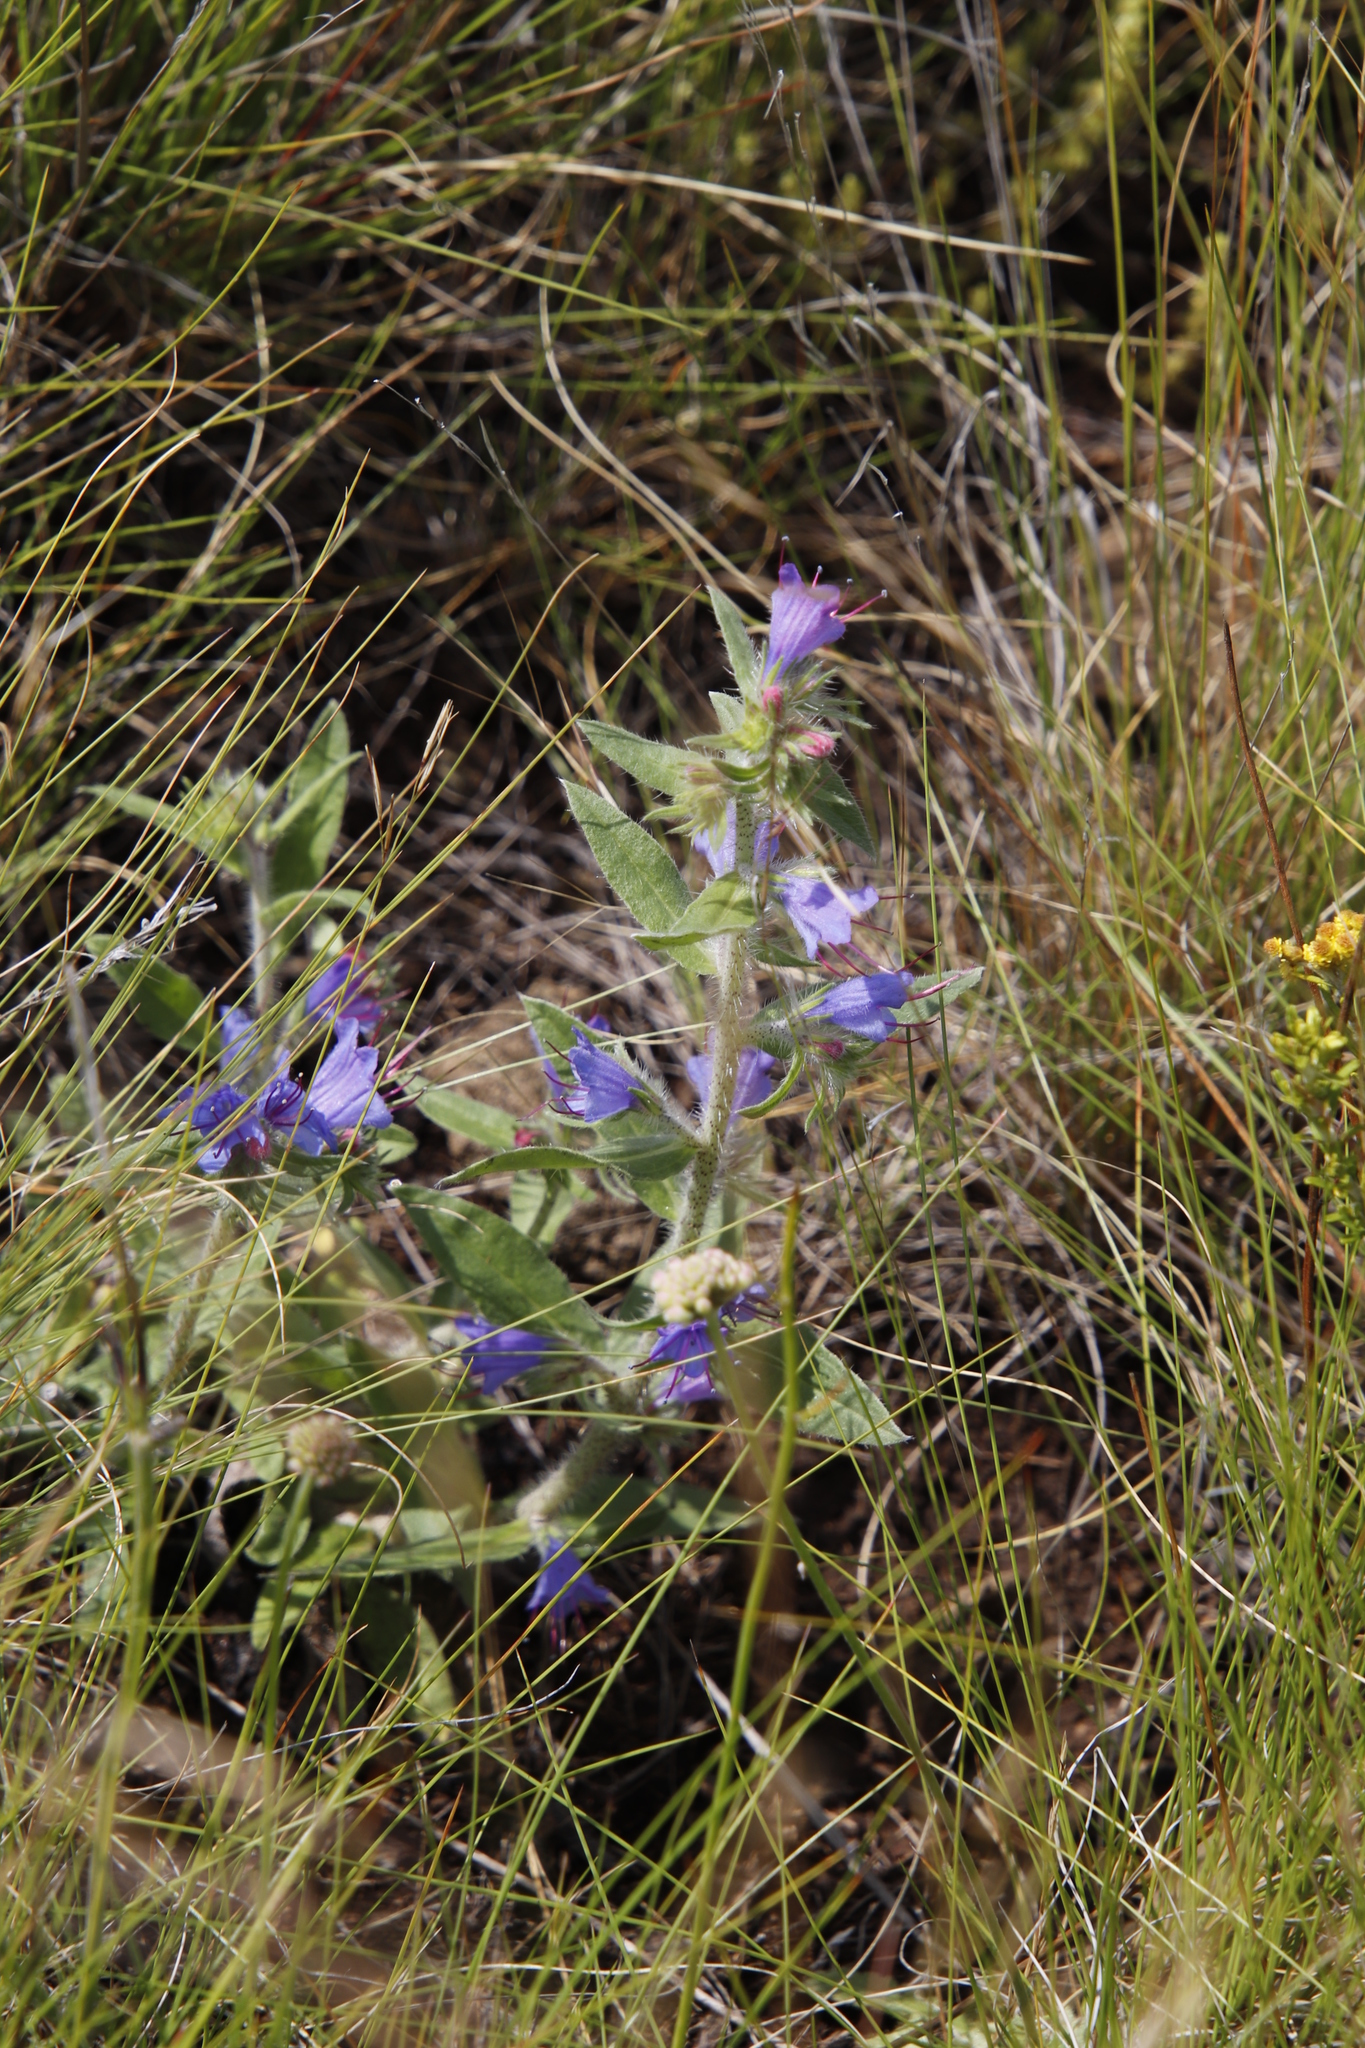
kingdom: Plantae
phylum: Tracheophyta
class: Magnoliopsida
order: Boraginales
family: Boraginaceae
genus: Echium
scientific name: Echium vulgare
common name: Common viper's bugloss
